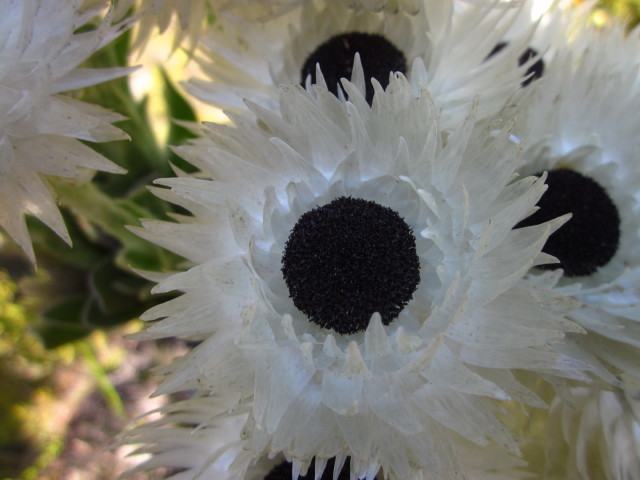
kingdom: Plantae
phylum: Tracheophyta
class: Magnoliopsida
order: Asterales
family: Asteraceae
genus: Syncarpha
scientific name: Syncarpha vestita
